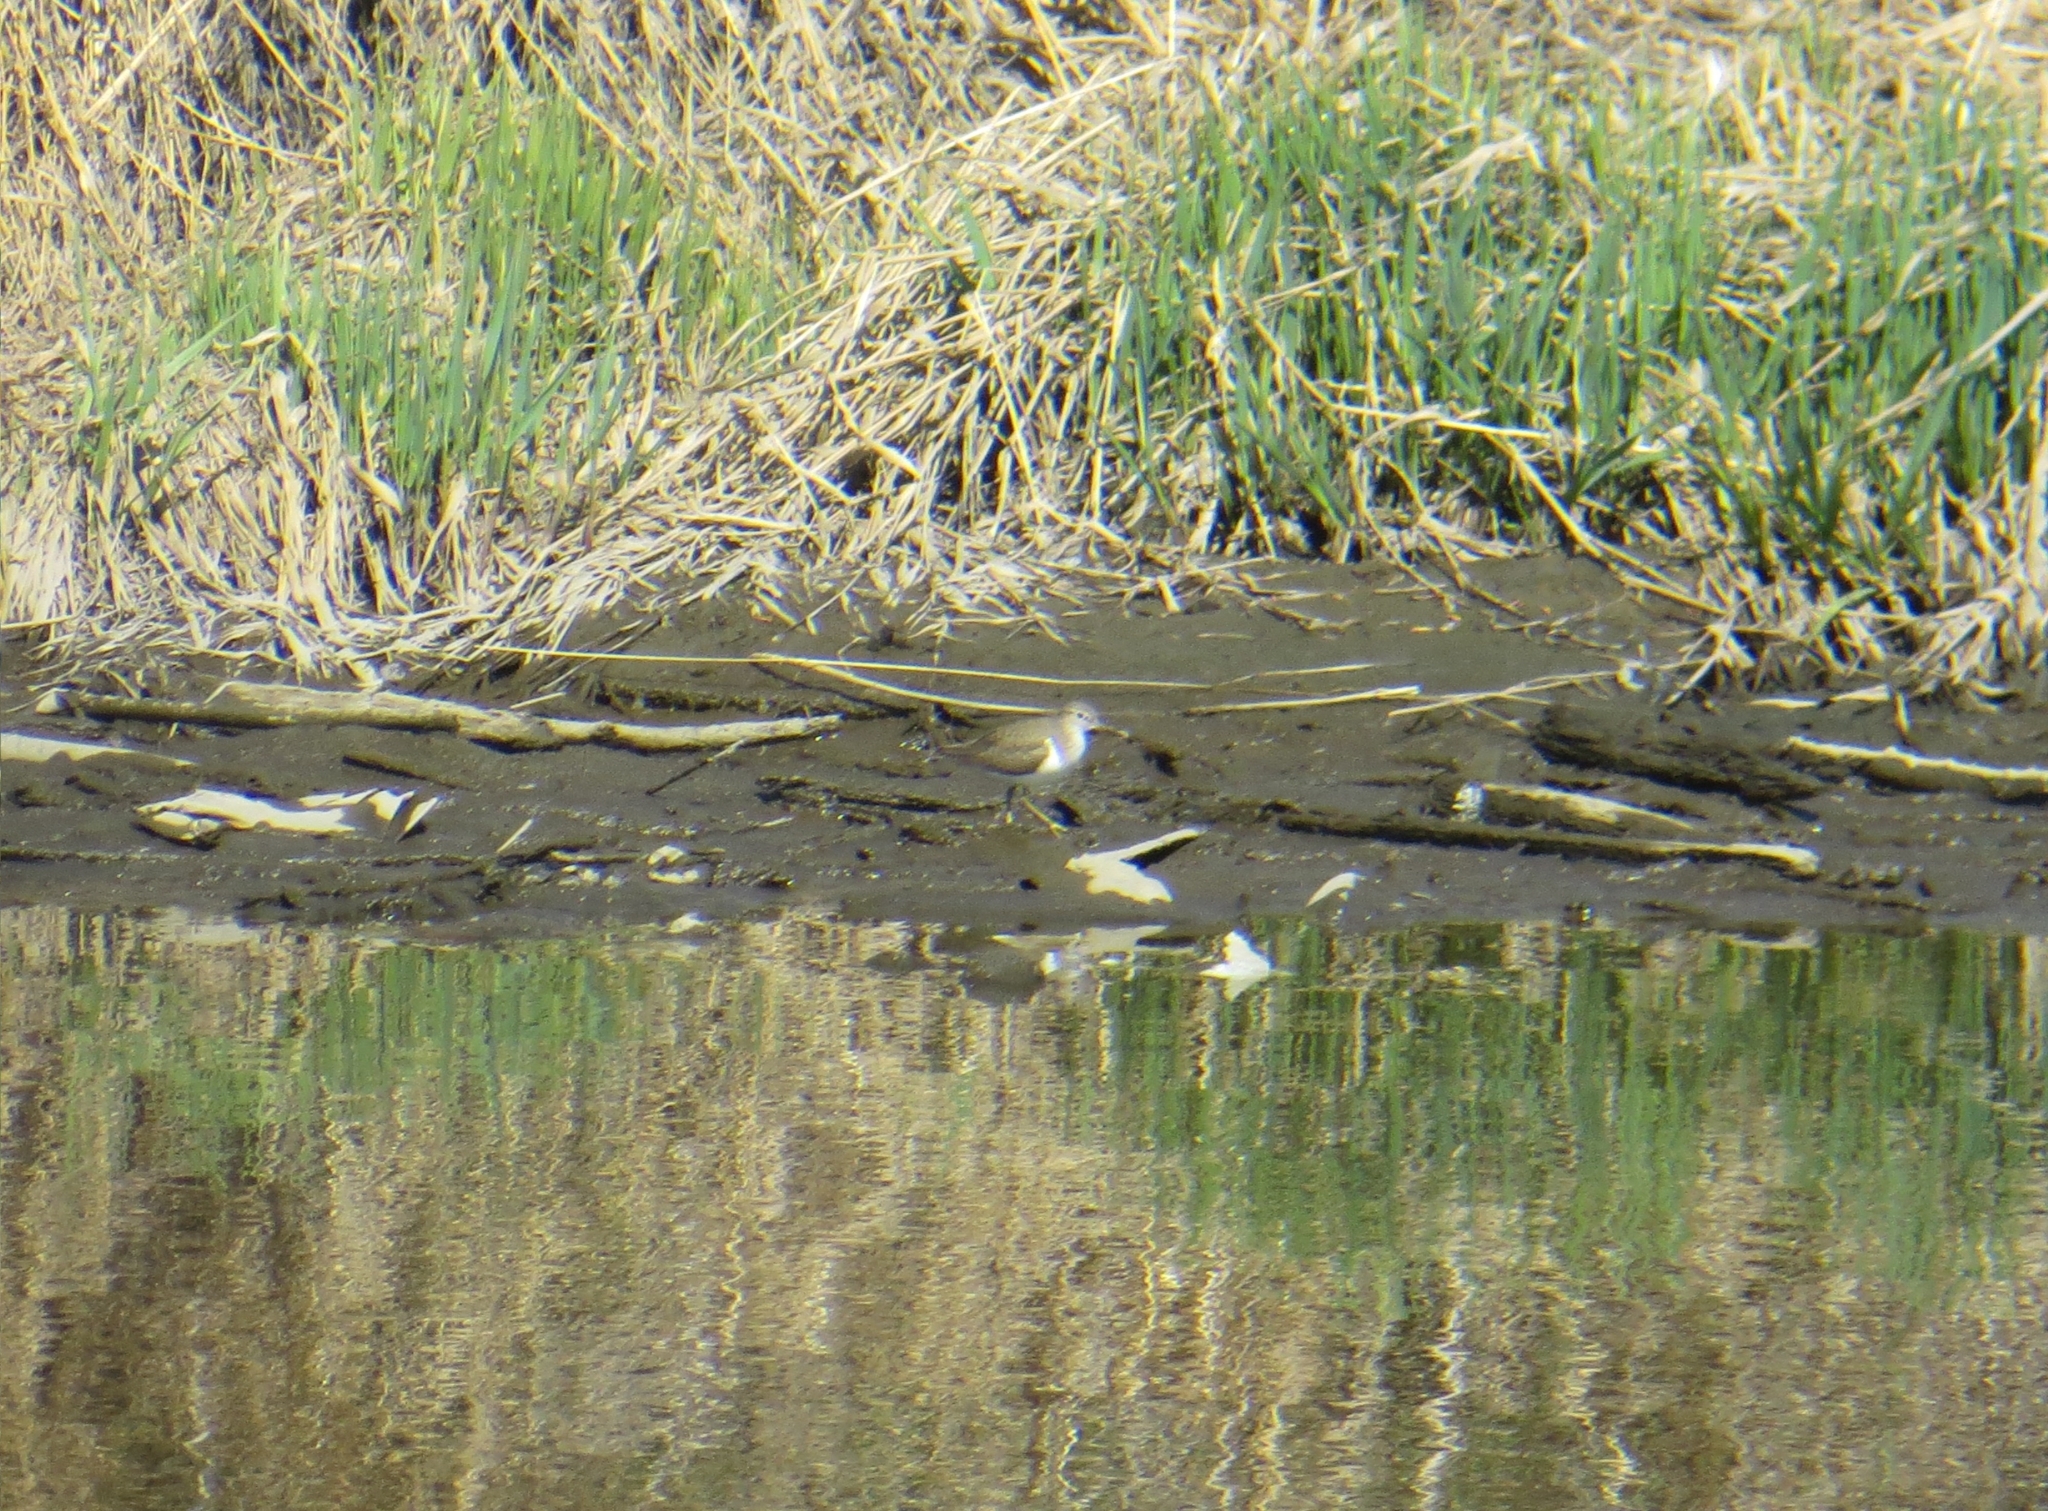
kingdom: Animalia
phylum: Chordata
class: Aves
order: Charadriiformes
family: Scolopacidae
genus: Actitis
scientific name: Actitis hypoleucos
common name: Common sandpiper
